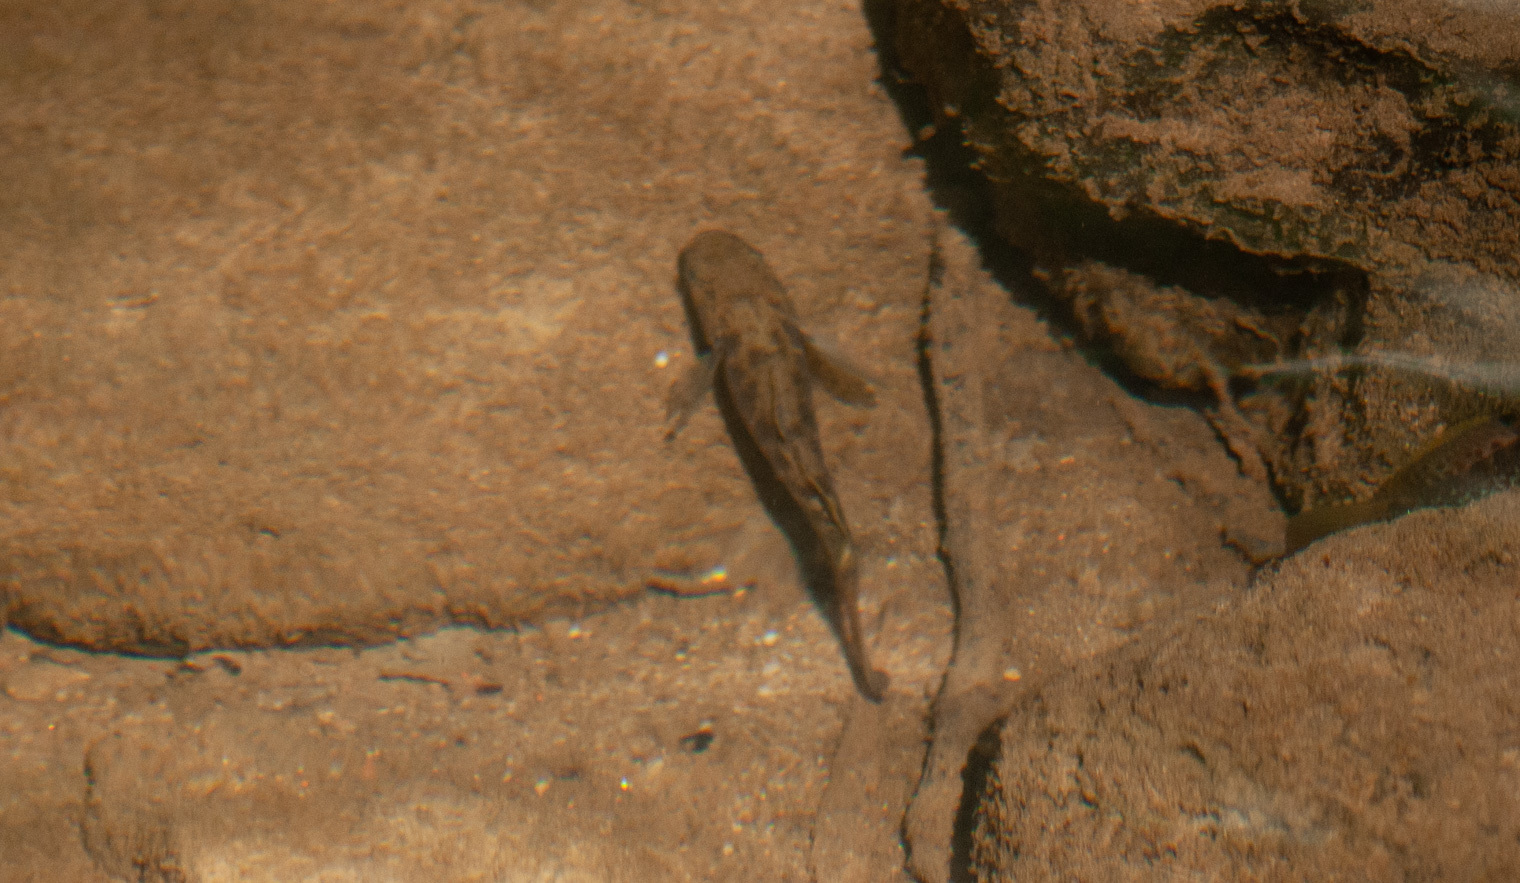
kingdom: Animalia
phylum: Chordata
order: Perciformes
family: Eleotridae
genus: Mogurnda
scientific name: Mogurnda adspersa
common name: Southern purple spotted gudgeon
